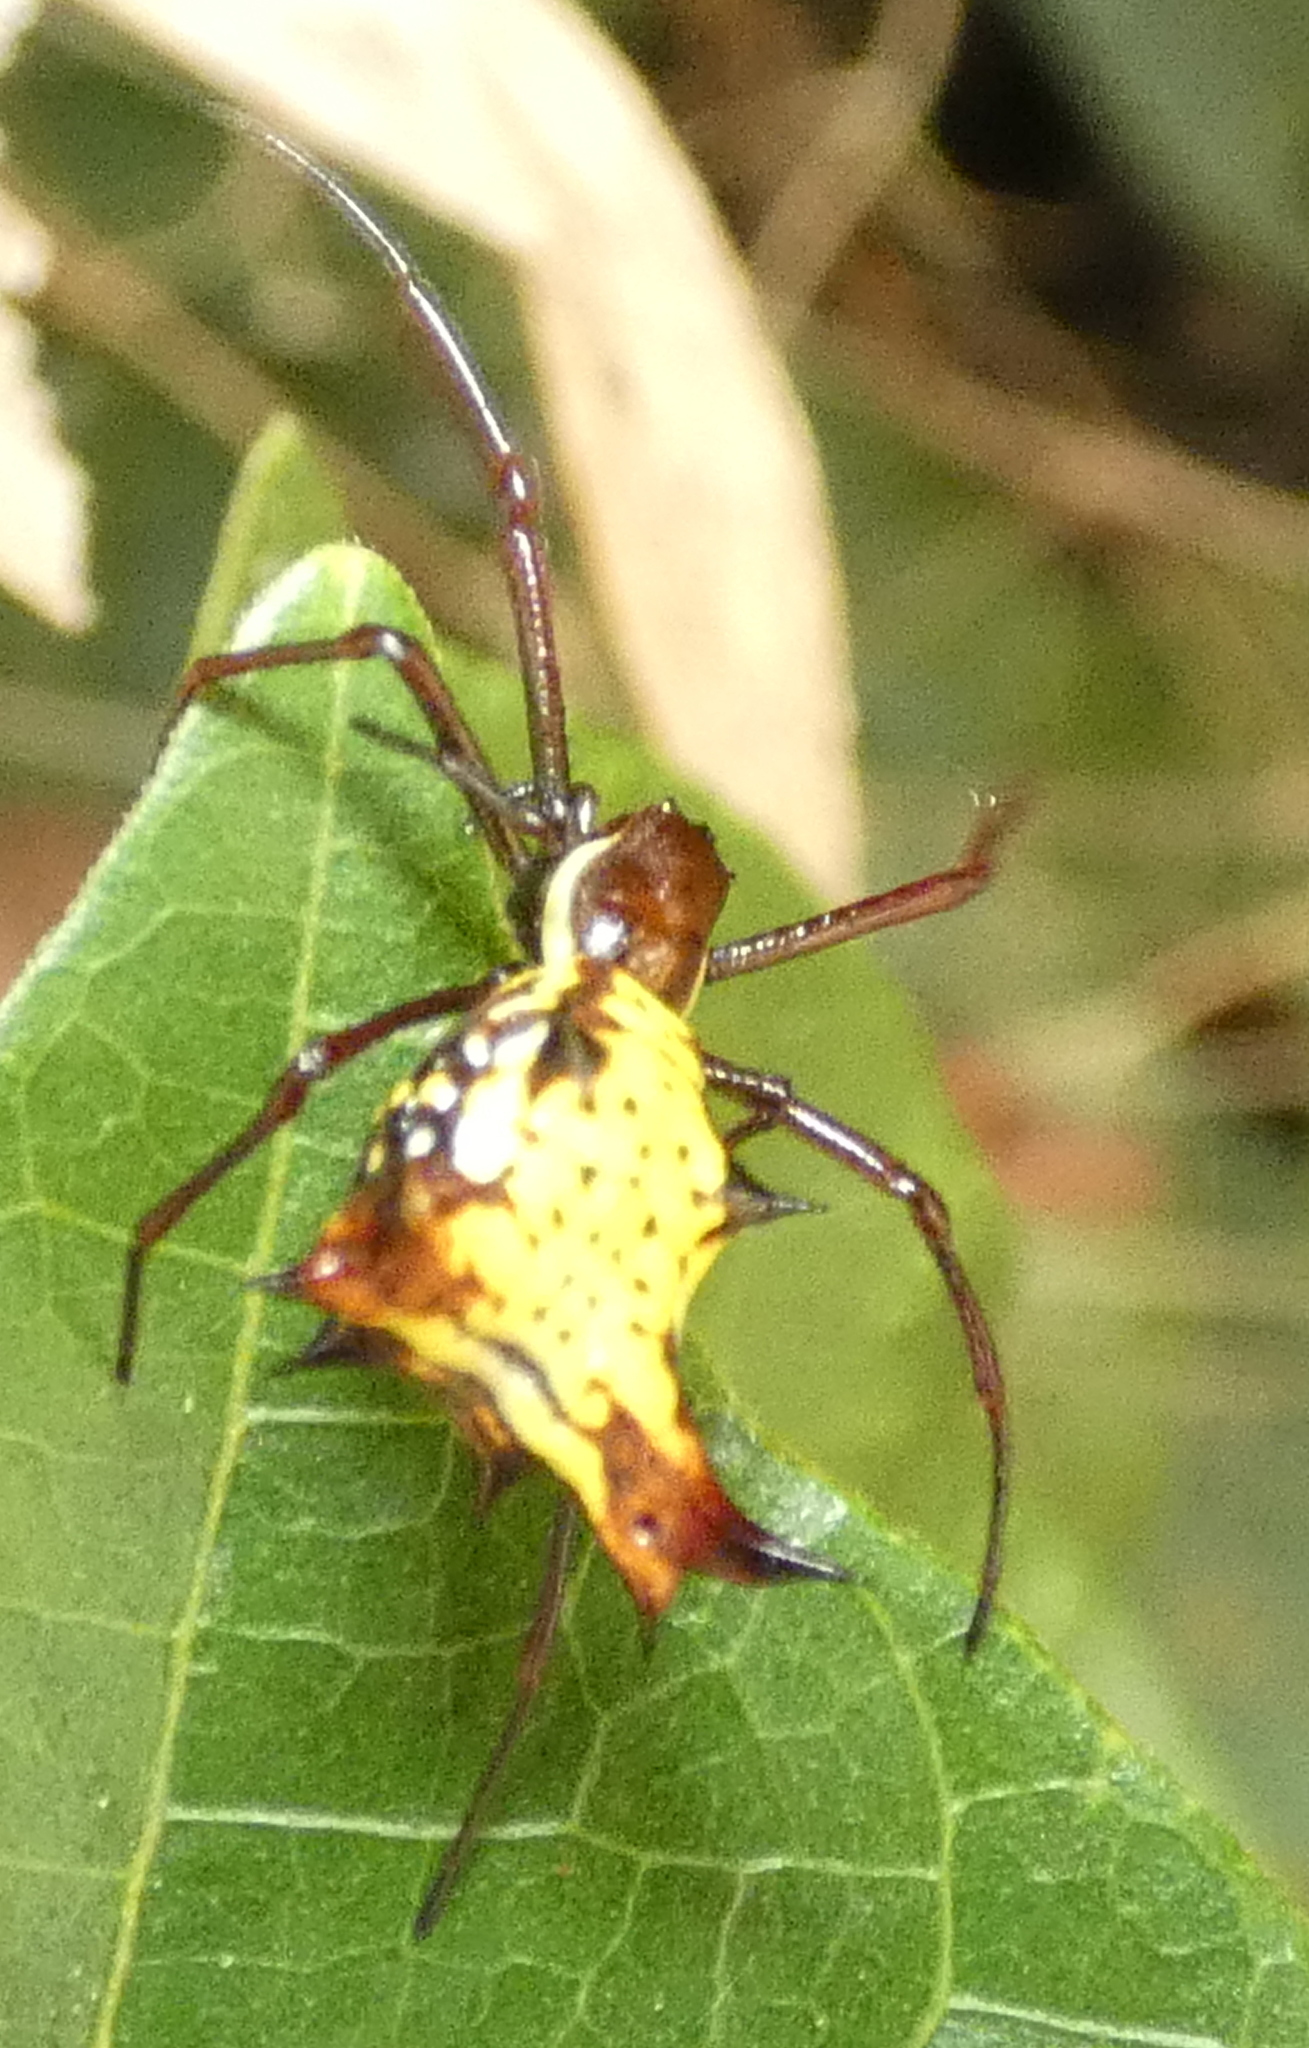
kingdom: Animalia
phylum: Arthropoda
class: Arachnida
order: Araneae
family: Araneidae
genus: Micrathena
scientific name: Micrathena fissispina
